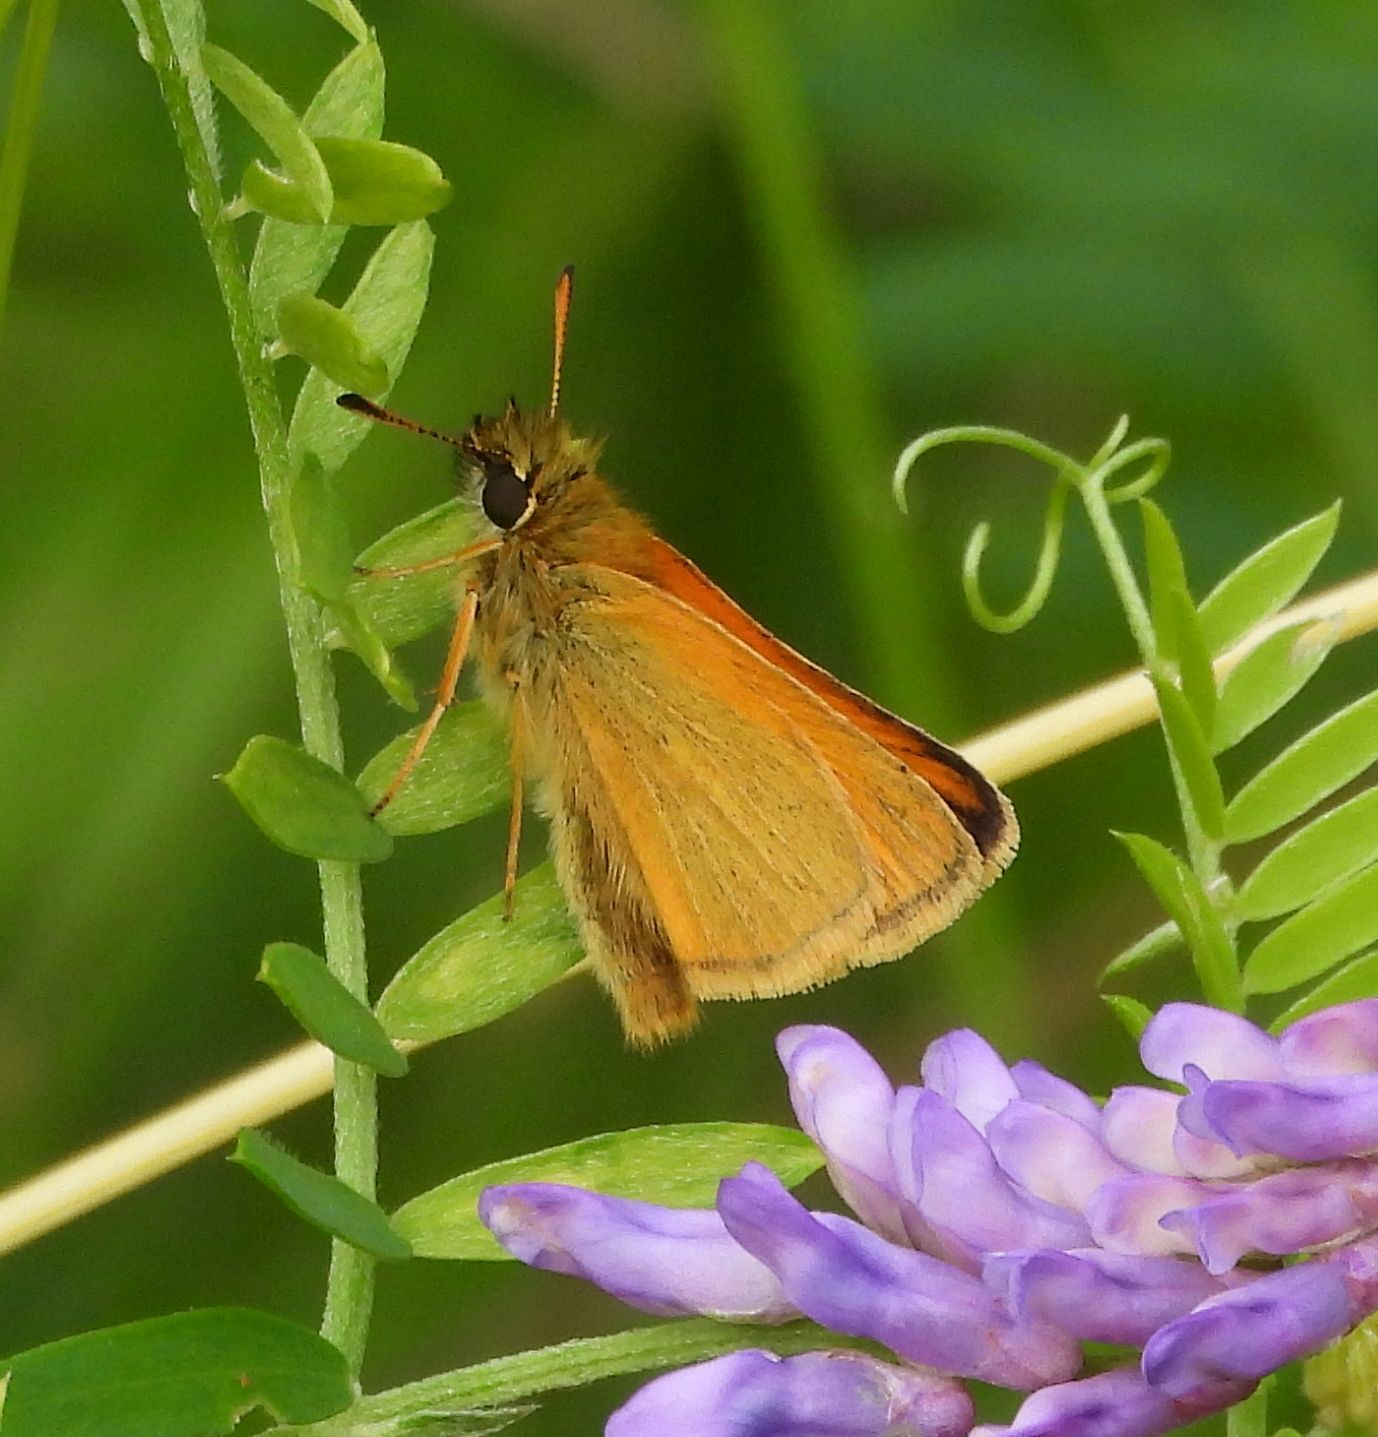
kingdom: Animalia
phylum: Arthropoda
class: Insecta
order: Lepidoptera
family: Hesperiidae
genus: Thymelicus
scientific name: Thymelicus lineola
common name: Essex skipper
